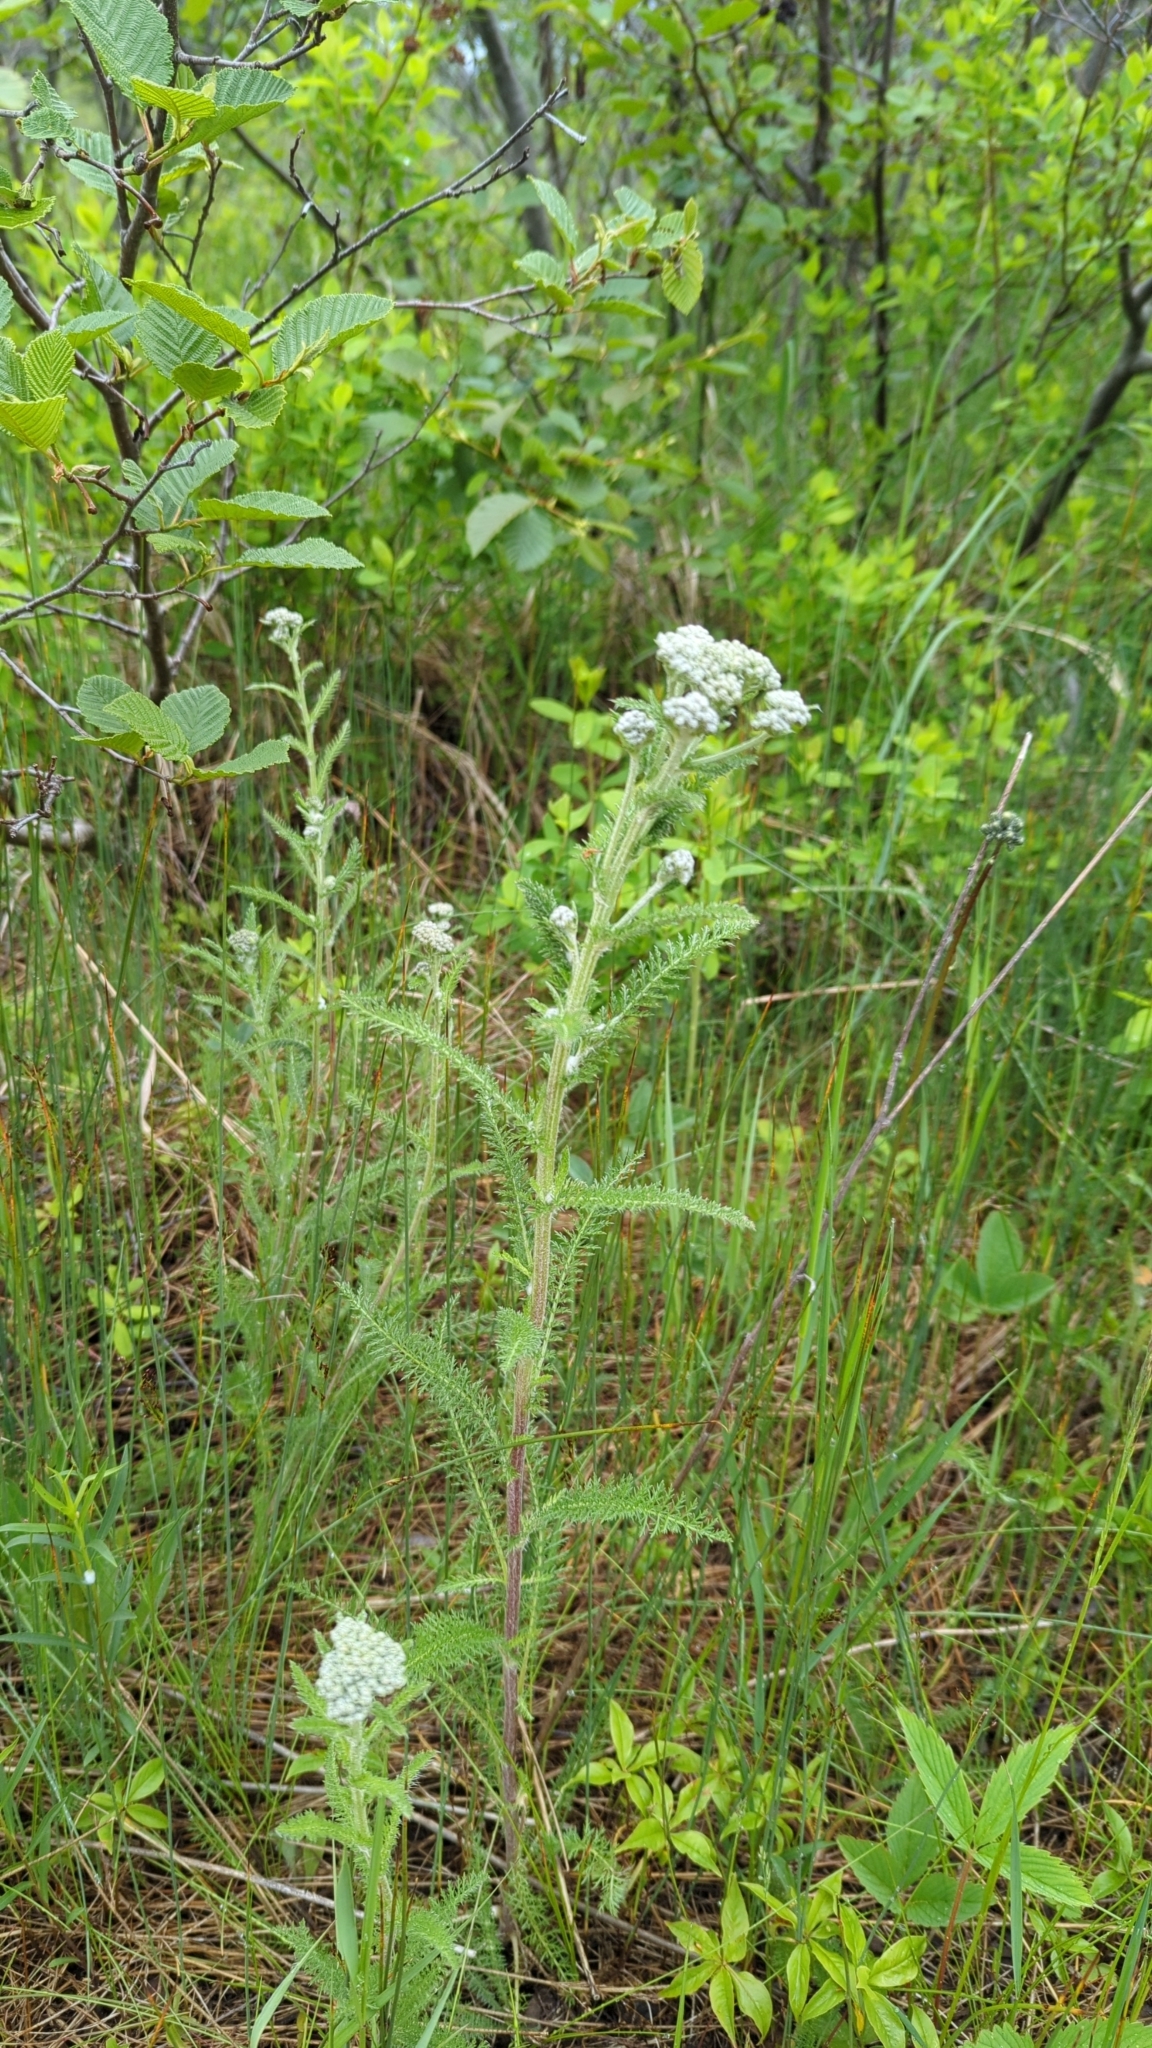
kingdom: Plantae
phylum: Tracheophyta
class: Magnoliopsida
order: Asterales
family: Asteraceae
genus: Achillea
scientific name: Achillea millefolium
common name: Yarrow
